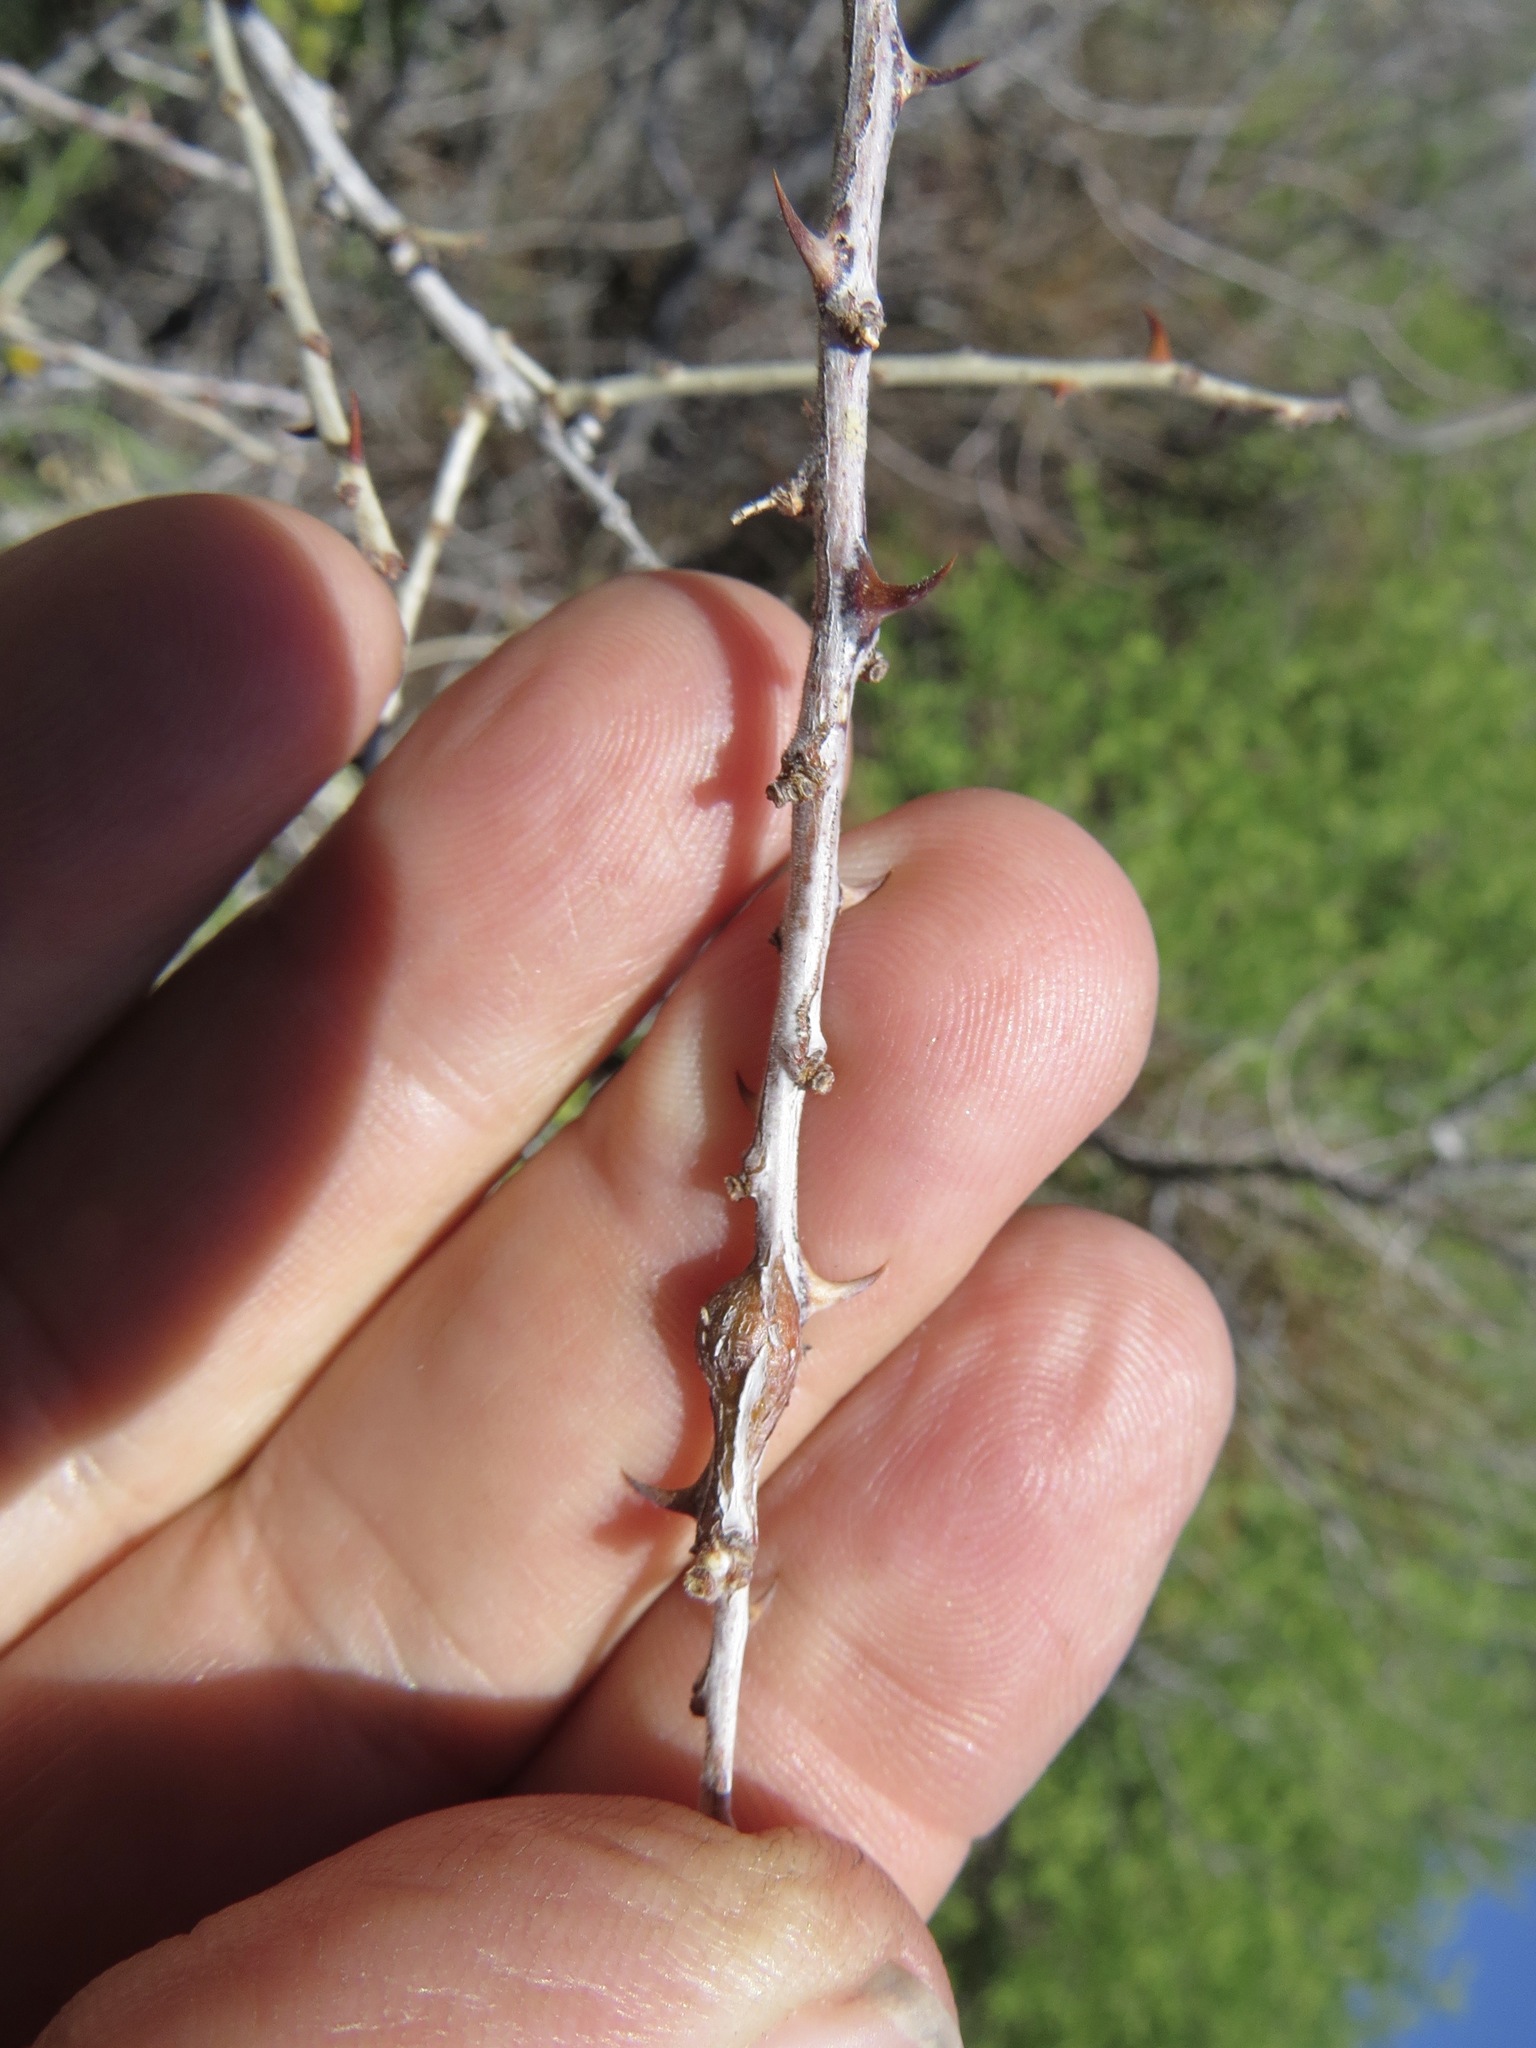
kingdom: Animalia
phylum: Arthropoda
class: Insecta
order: Hymenoptera
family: Tanaostigmatidae
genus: Tanaostigmodes
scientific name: Tanaostigmodes howardii
